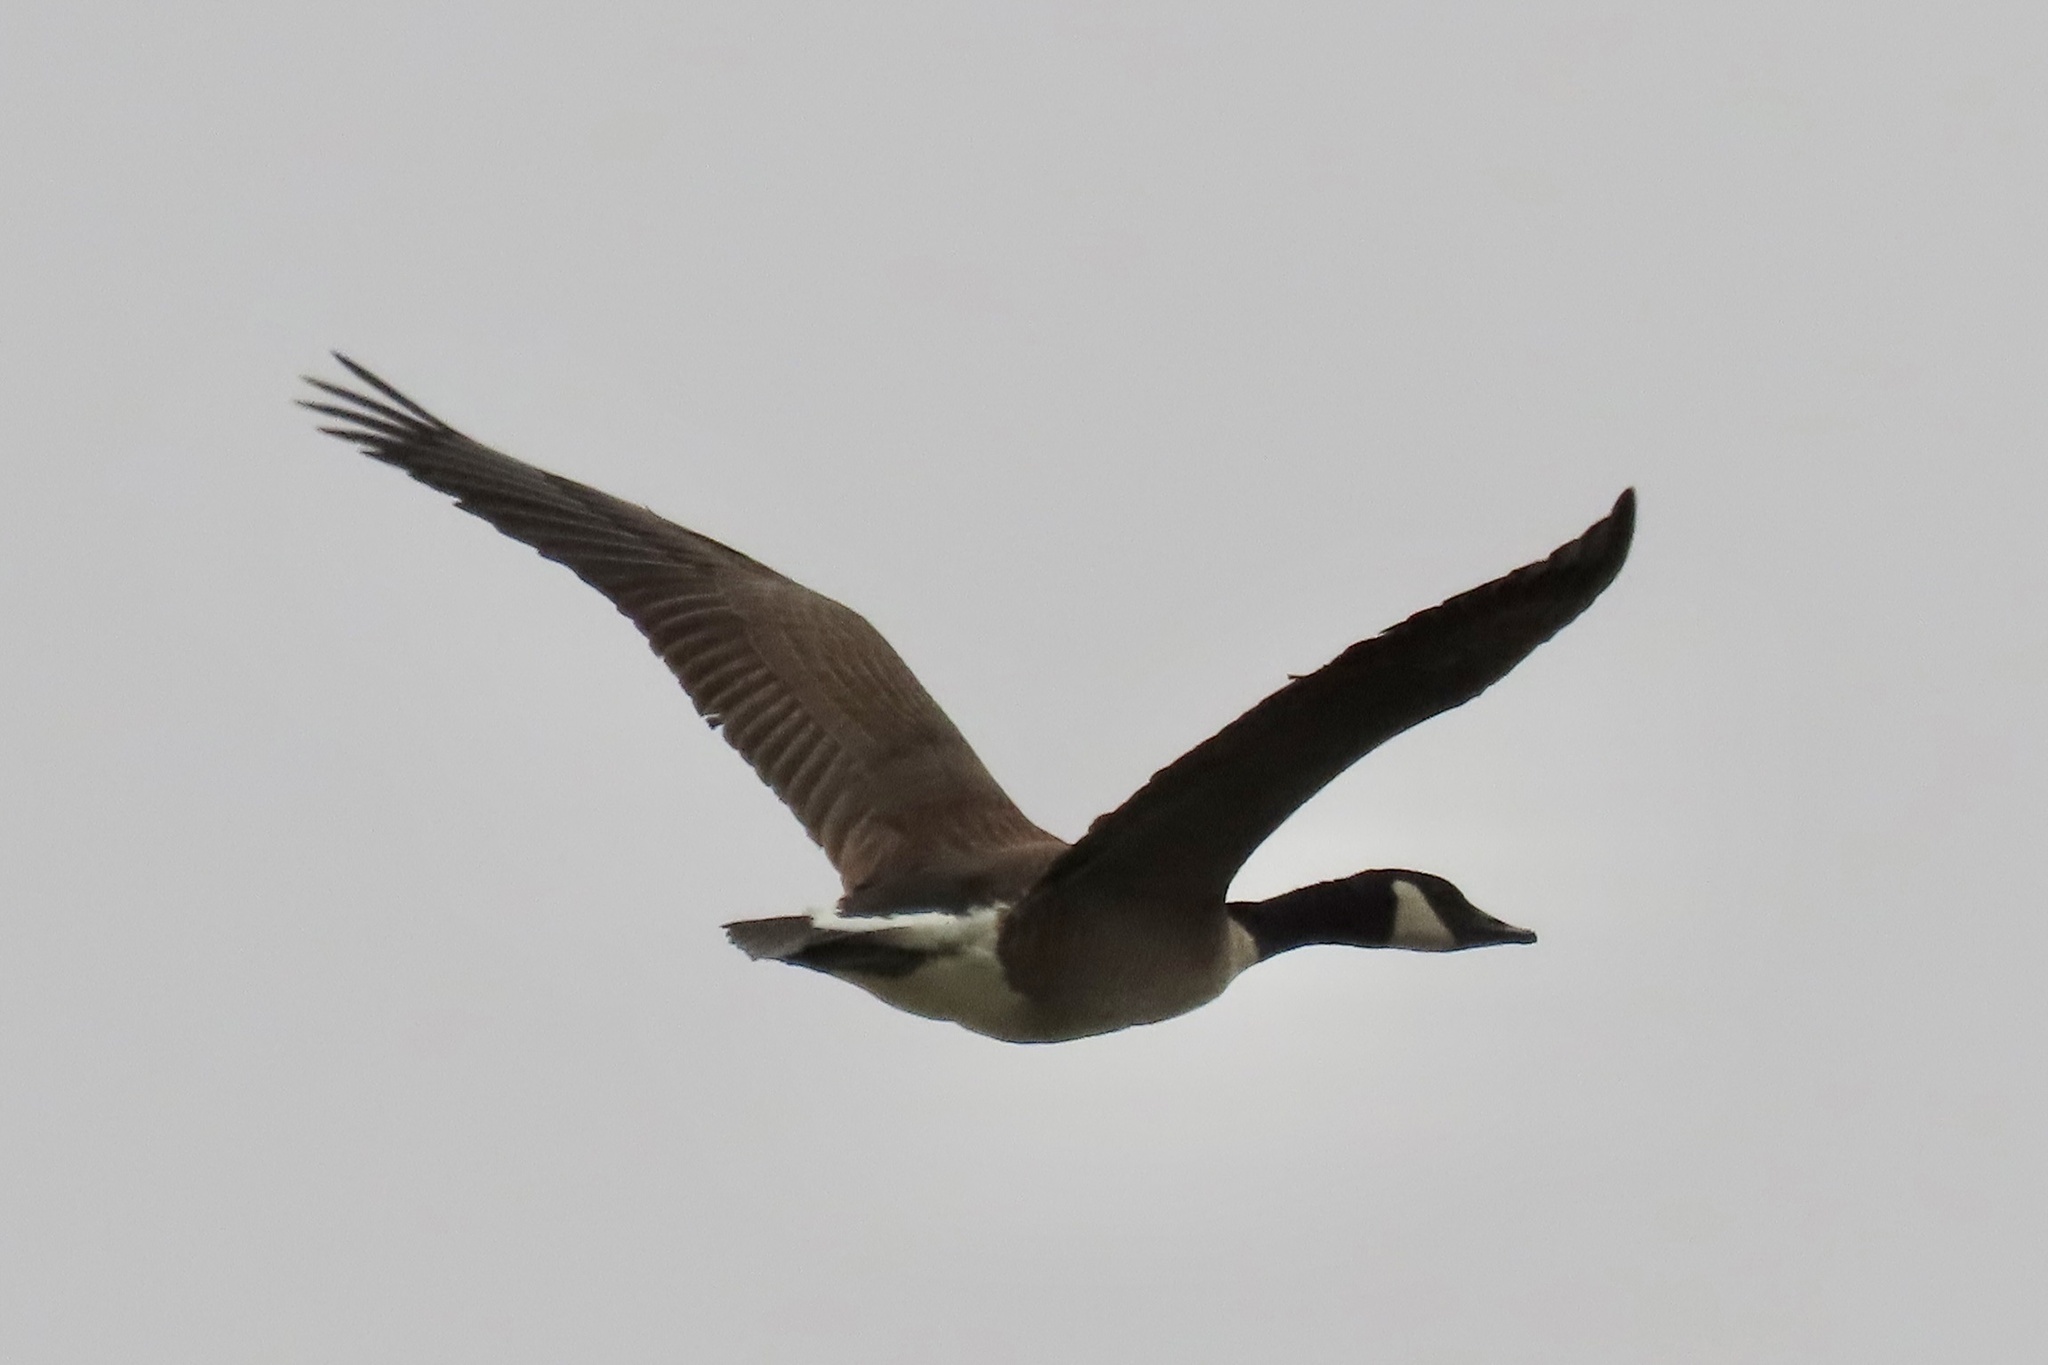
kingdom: Animalia
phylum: Chordata
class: Aves
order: Anseriformes
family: Anatidae
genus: Branta
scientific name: Branta canadensis
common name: Canada goose
